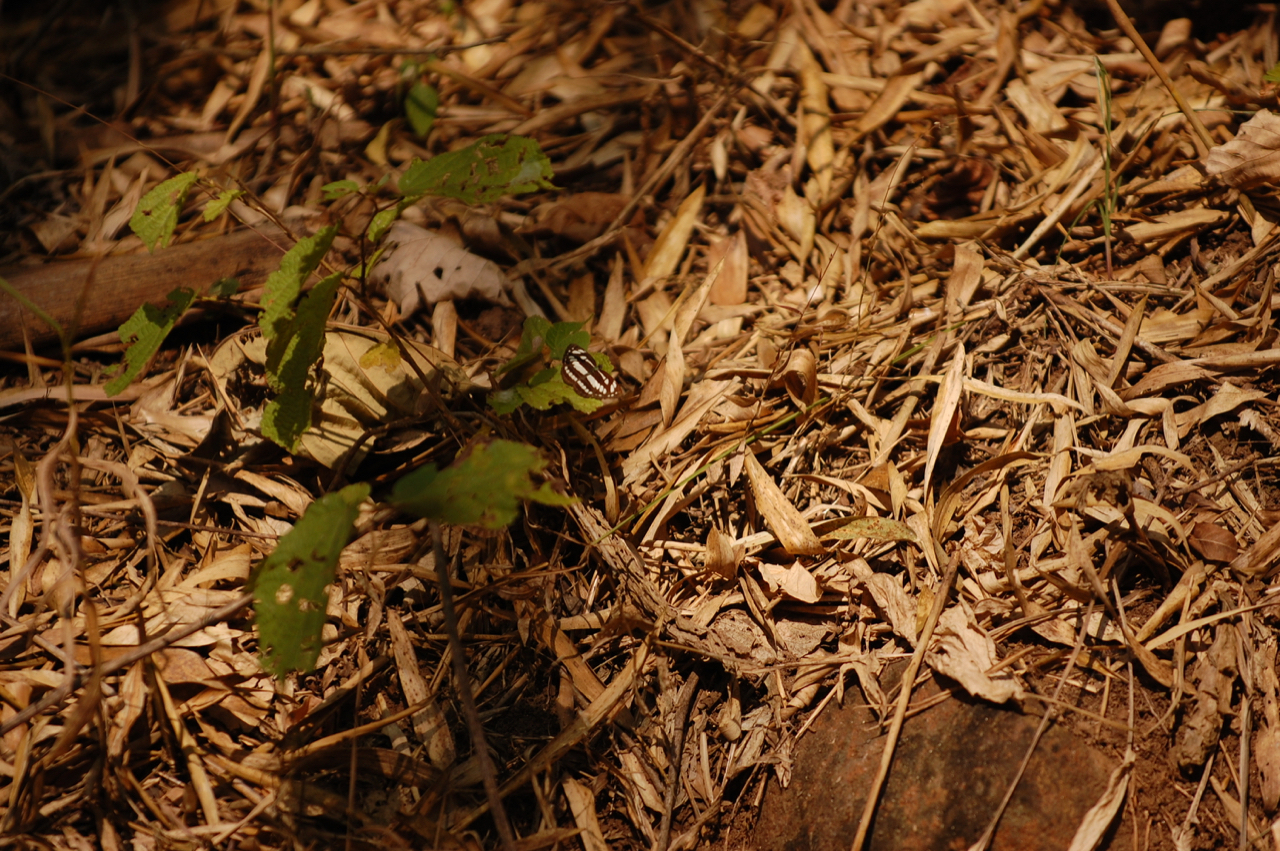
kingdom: Animalia
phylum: Arthropoda
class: Insecta
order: Lepidoptera
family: Nymphalidae
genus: Neptis
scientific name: Neptis hylas
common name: Common sailer
